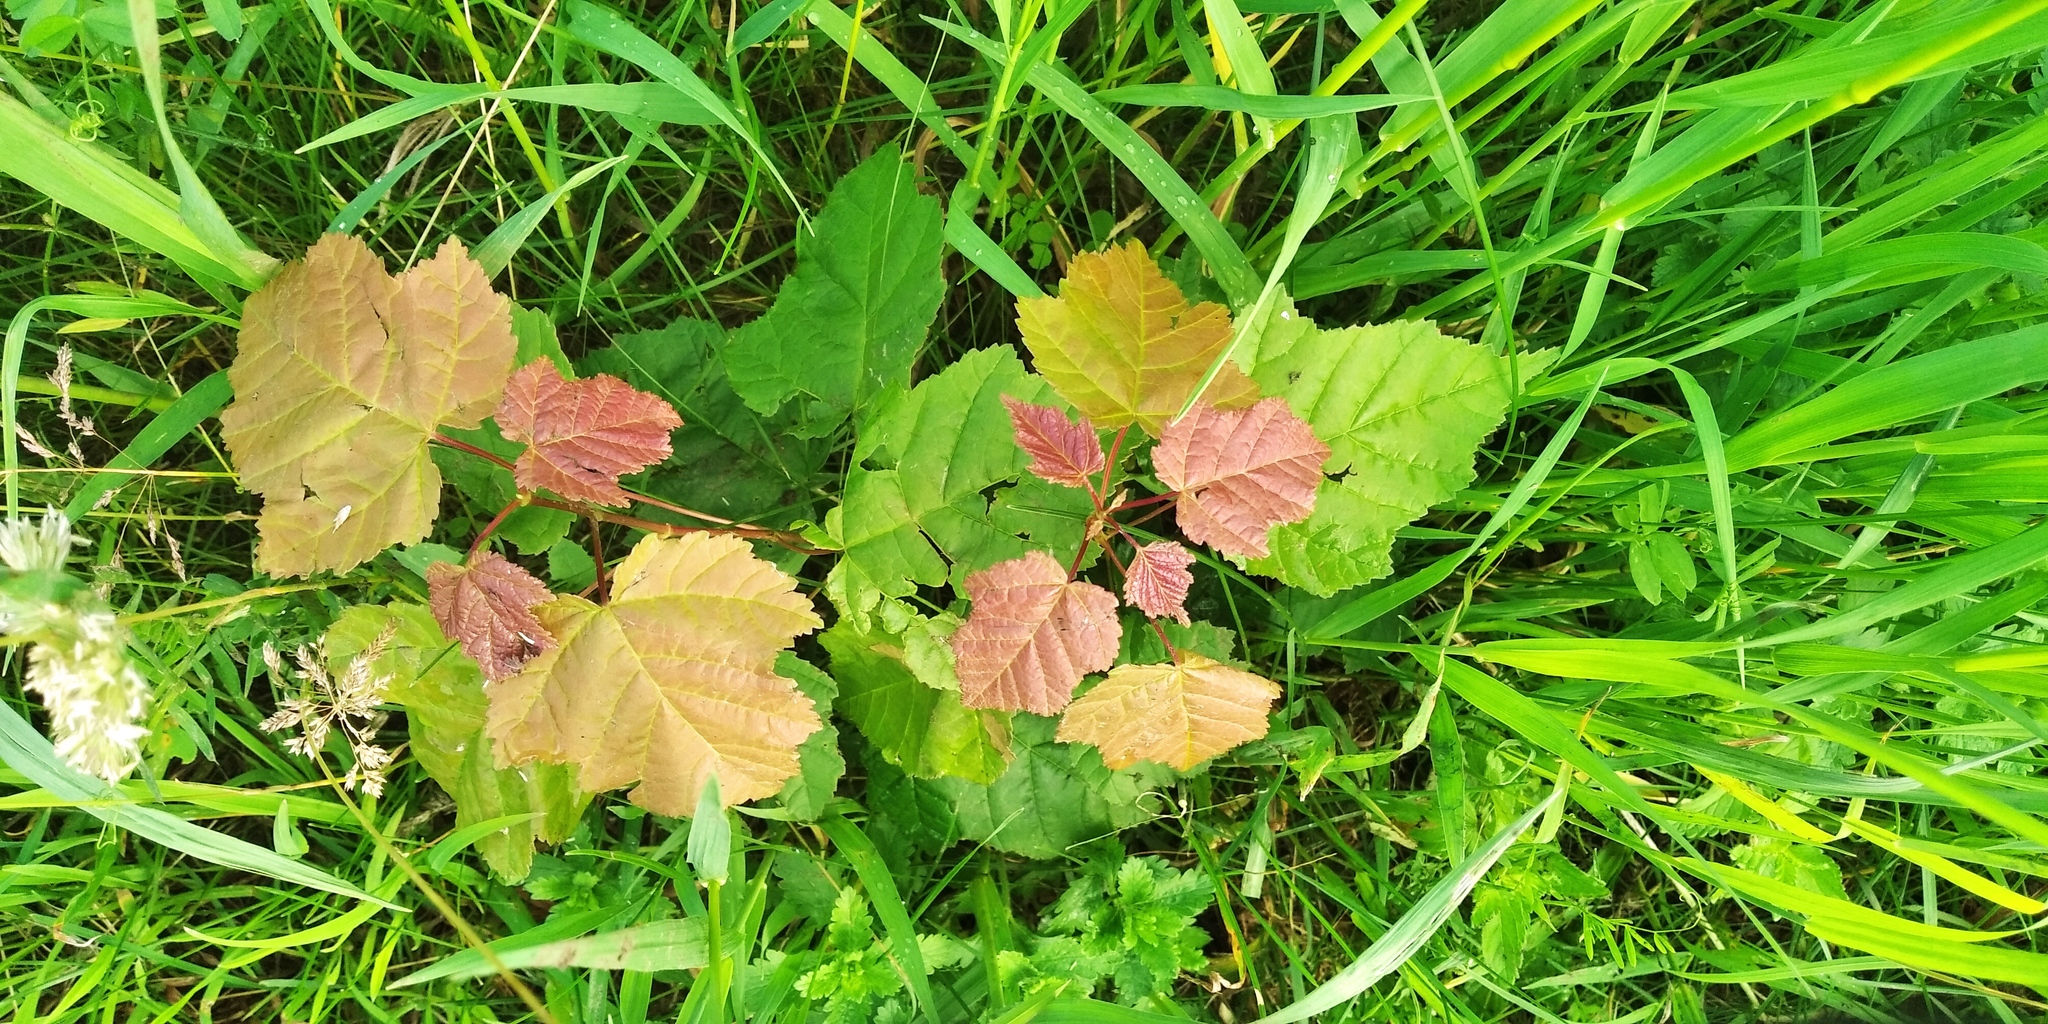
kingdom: Plantae
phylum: Tracheophyta
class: Magnoliopsida
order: Sapindales
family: Sapindaceae
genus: Acer
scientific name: Acer tataricum
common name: Tartar maple
